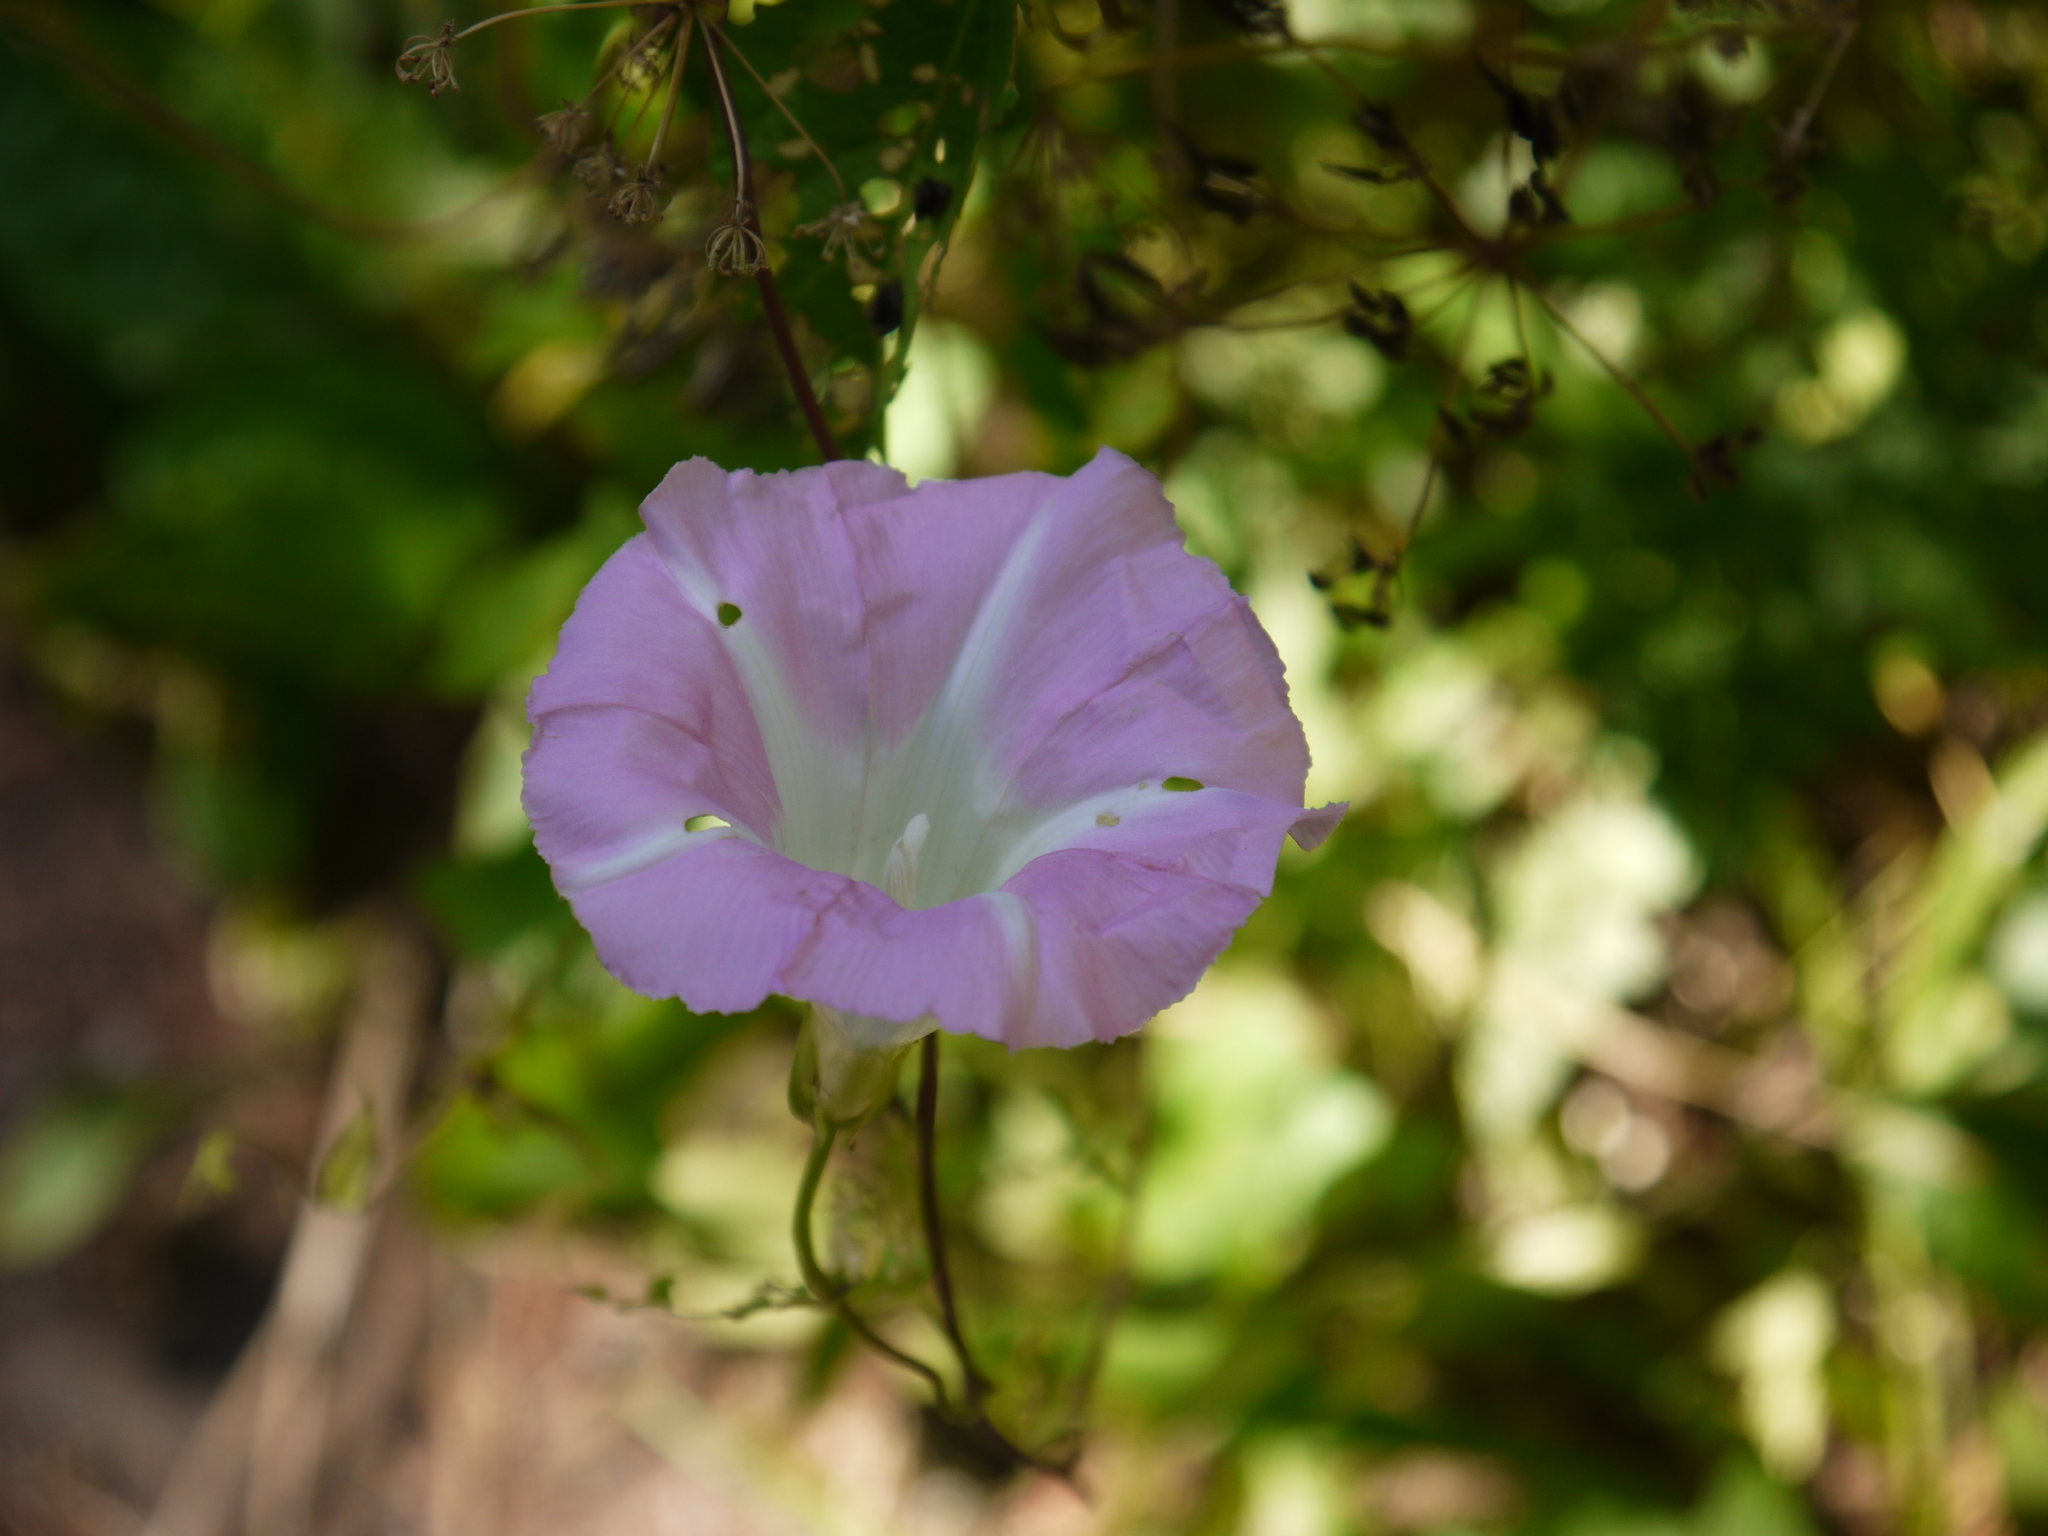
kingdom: Plantae
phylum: Tracheophyta
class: Magnoliopsida
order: Solanales
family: Convolvulaceae
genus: Calystegia
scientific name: Calystegia sepium
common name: Hedge bindweed
